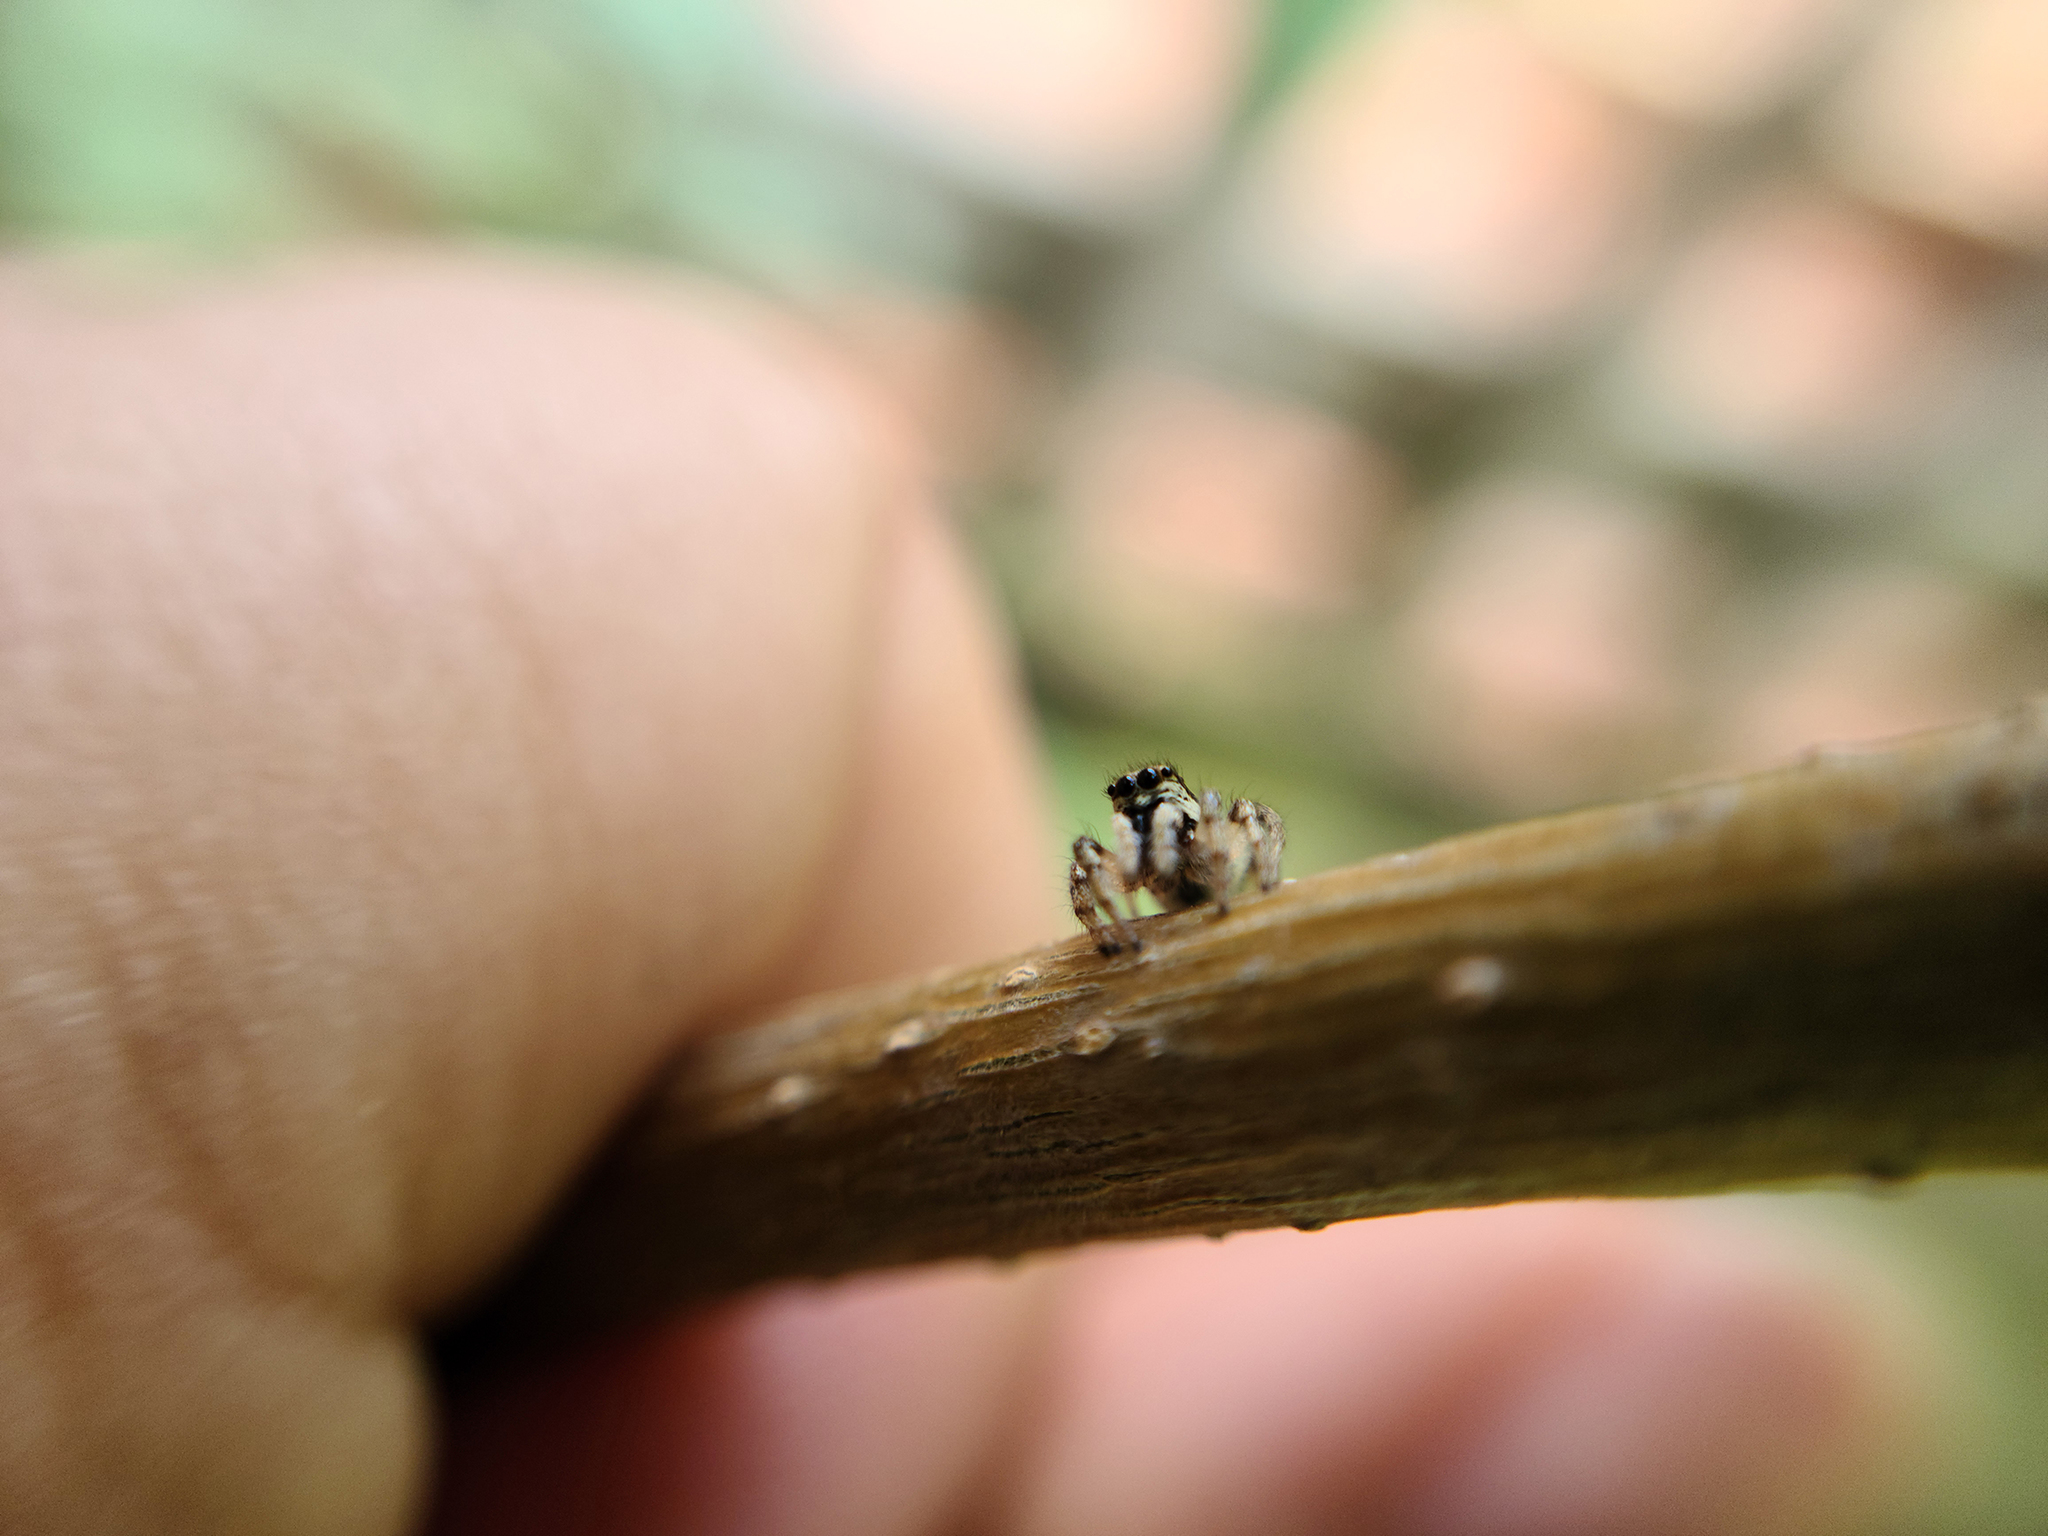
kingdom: Animalia
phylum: Arthropoda
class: Arachnida
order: Araneae
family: Salticidae
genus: Salticus
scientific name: Salticus scenicus
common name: Zebra jumper
